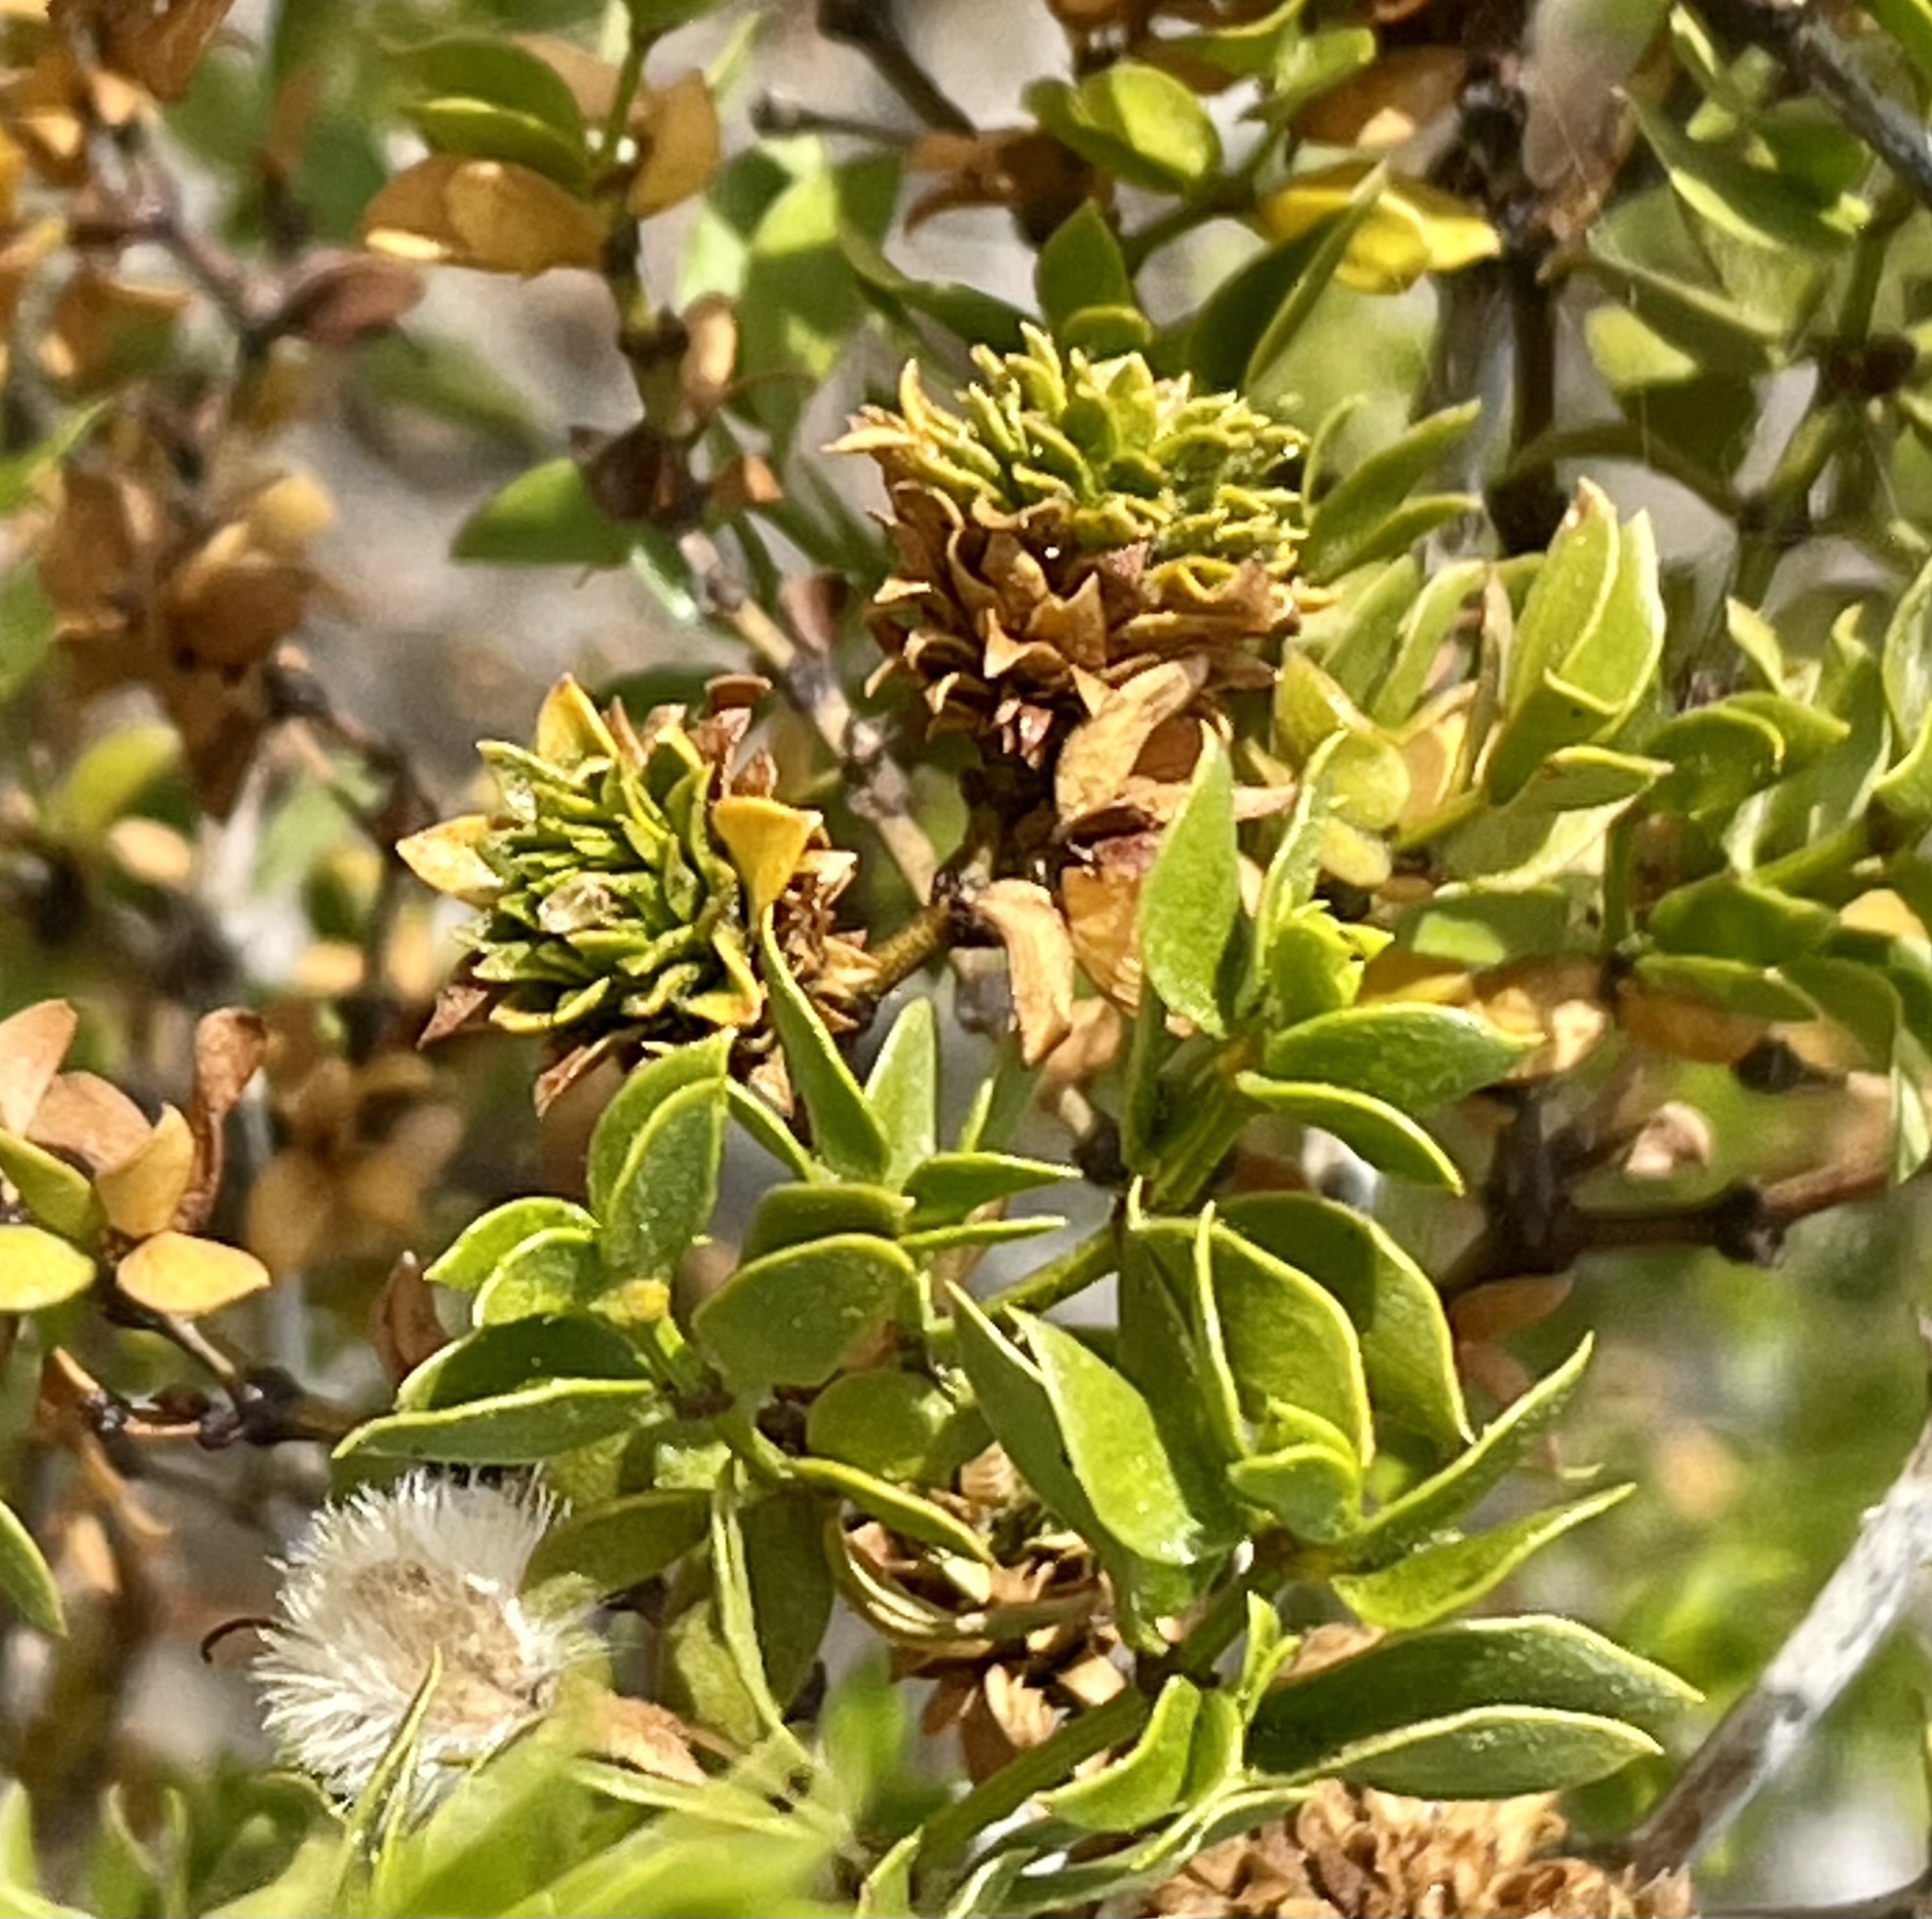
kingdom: Animalia
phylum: Arthropoda
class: Insecta
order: Diptera
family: Cecidomyiidae
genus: Asphondylia
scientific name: Asphondylia rosetta
